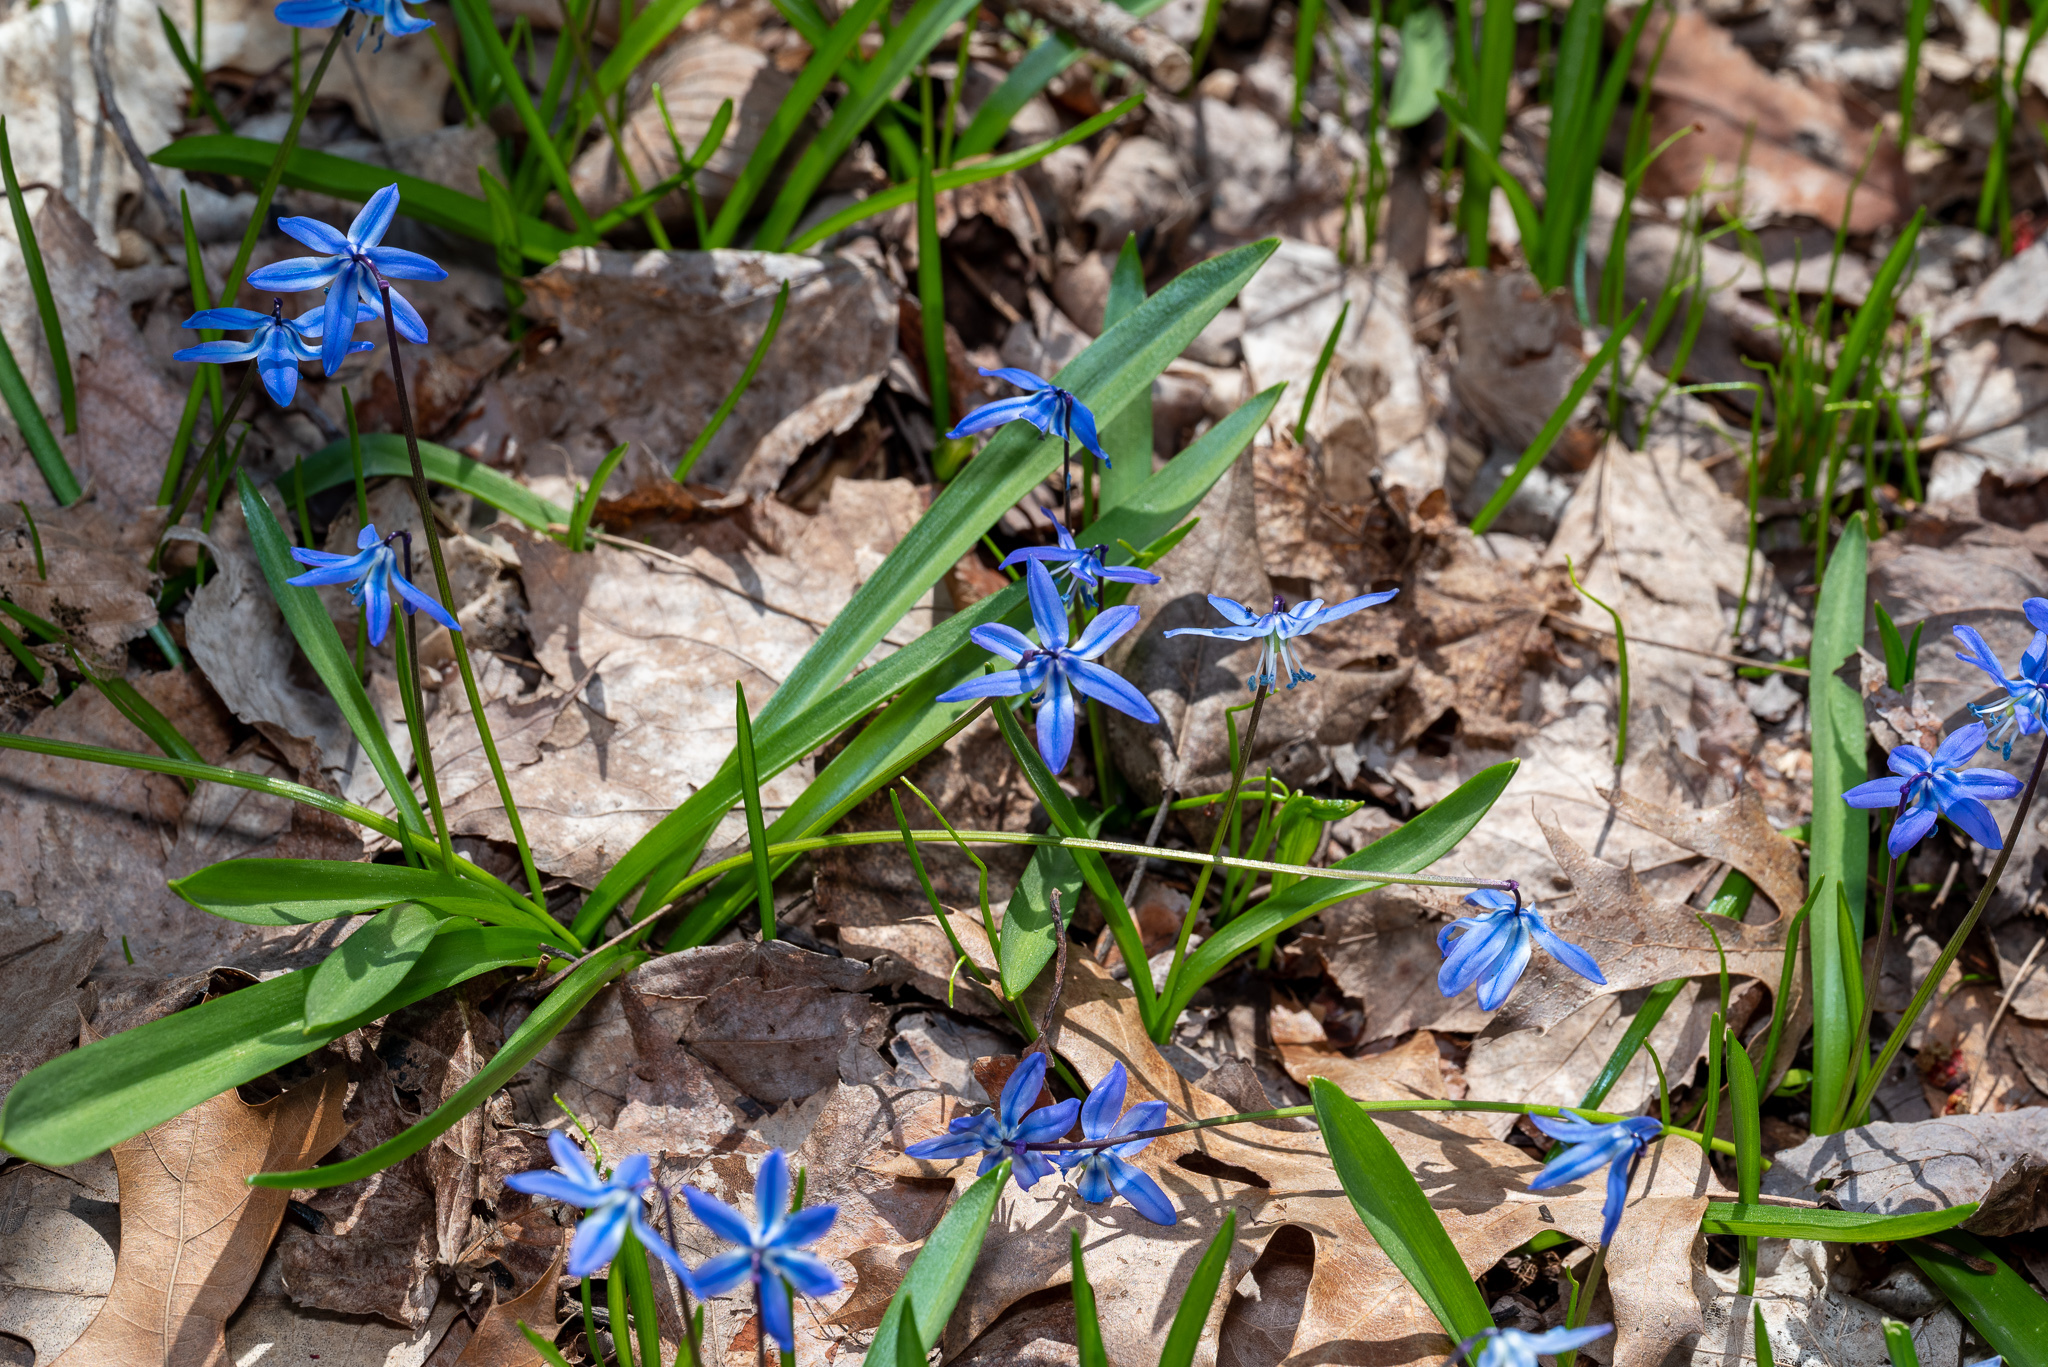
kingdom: Plantae
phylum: Tracheophyta
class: Liliopsida
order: Asparagales
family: Asparagaceae
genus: Scilla
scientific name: Scilla siberica
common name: Siberian squill
